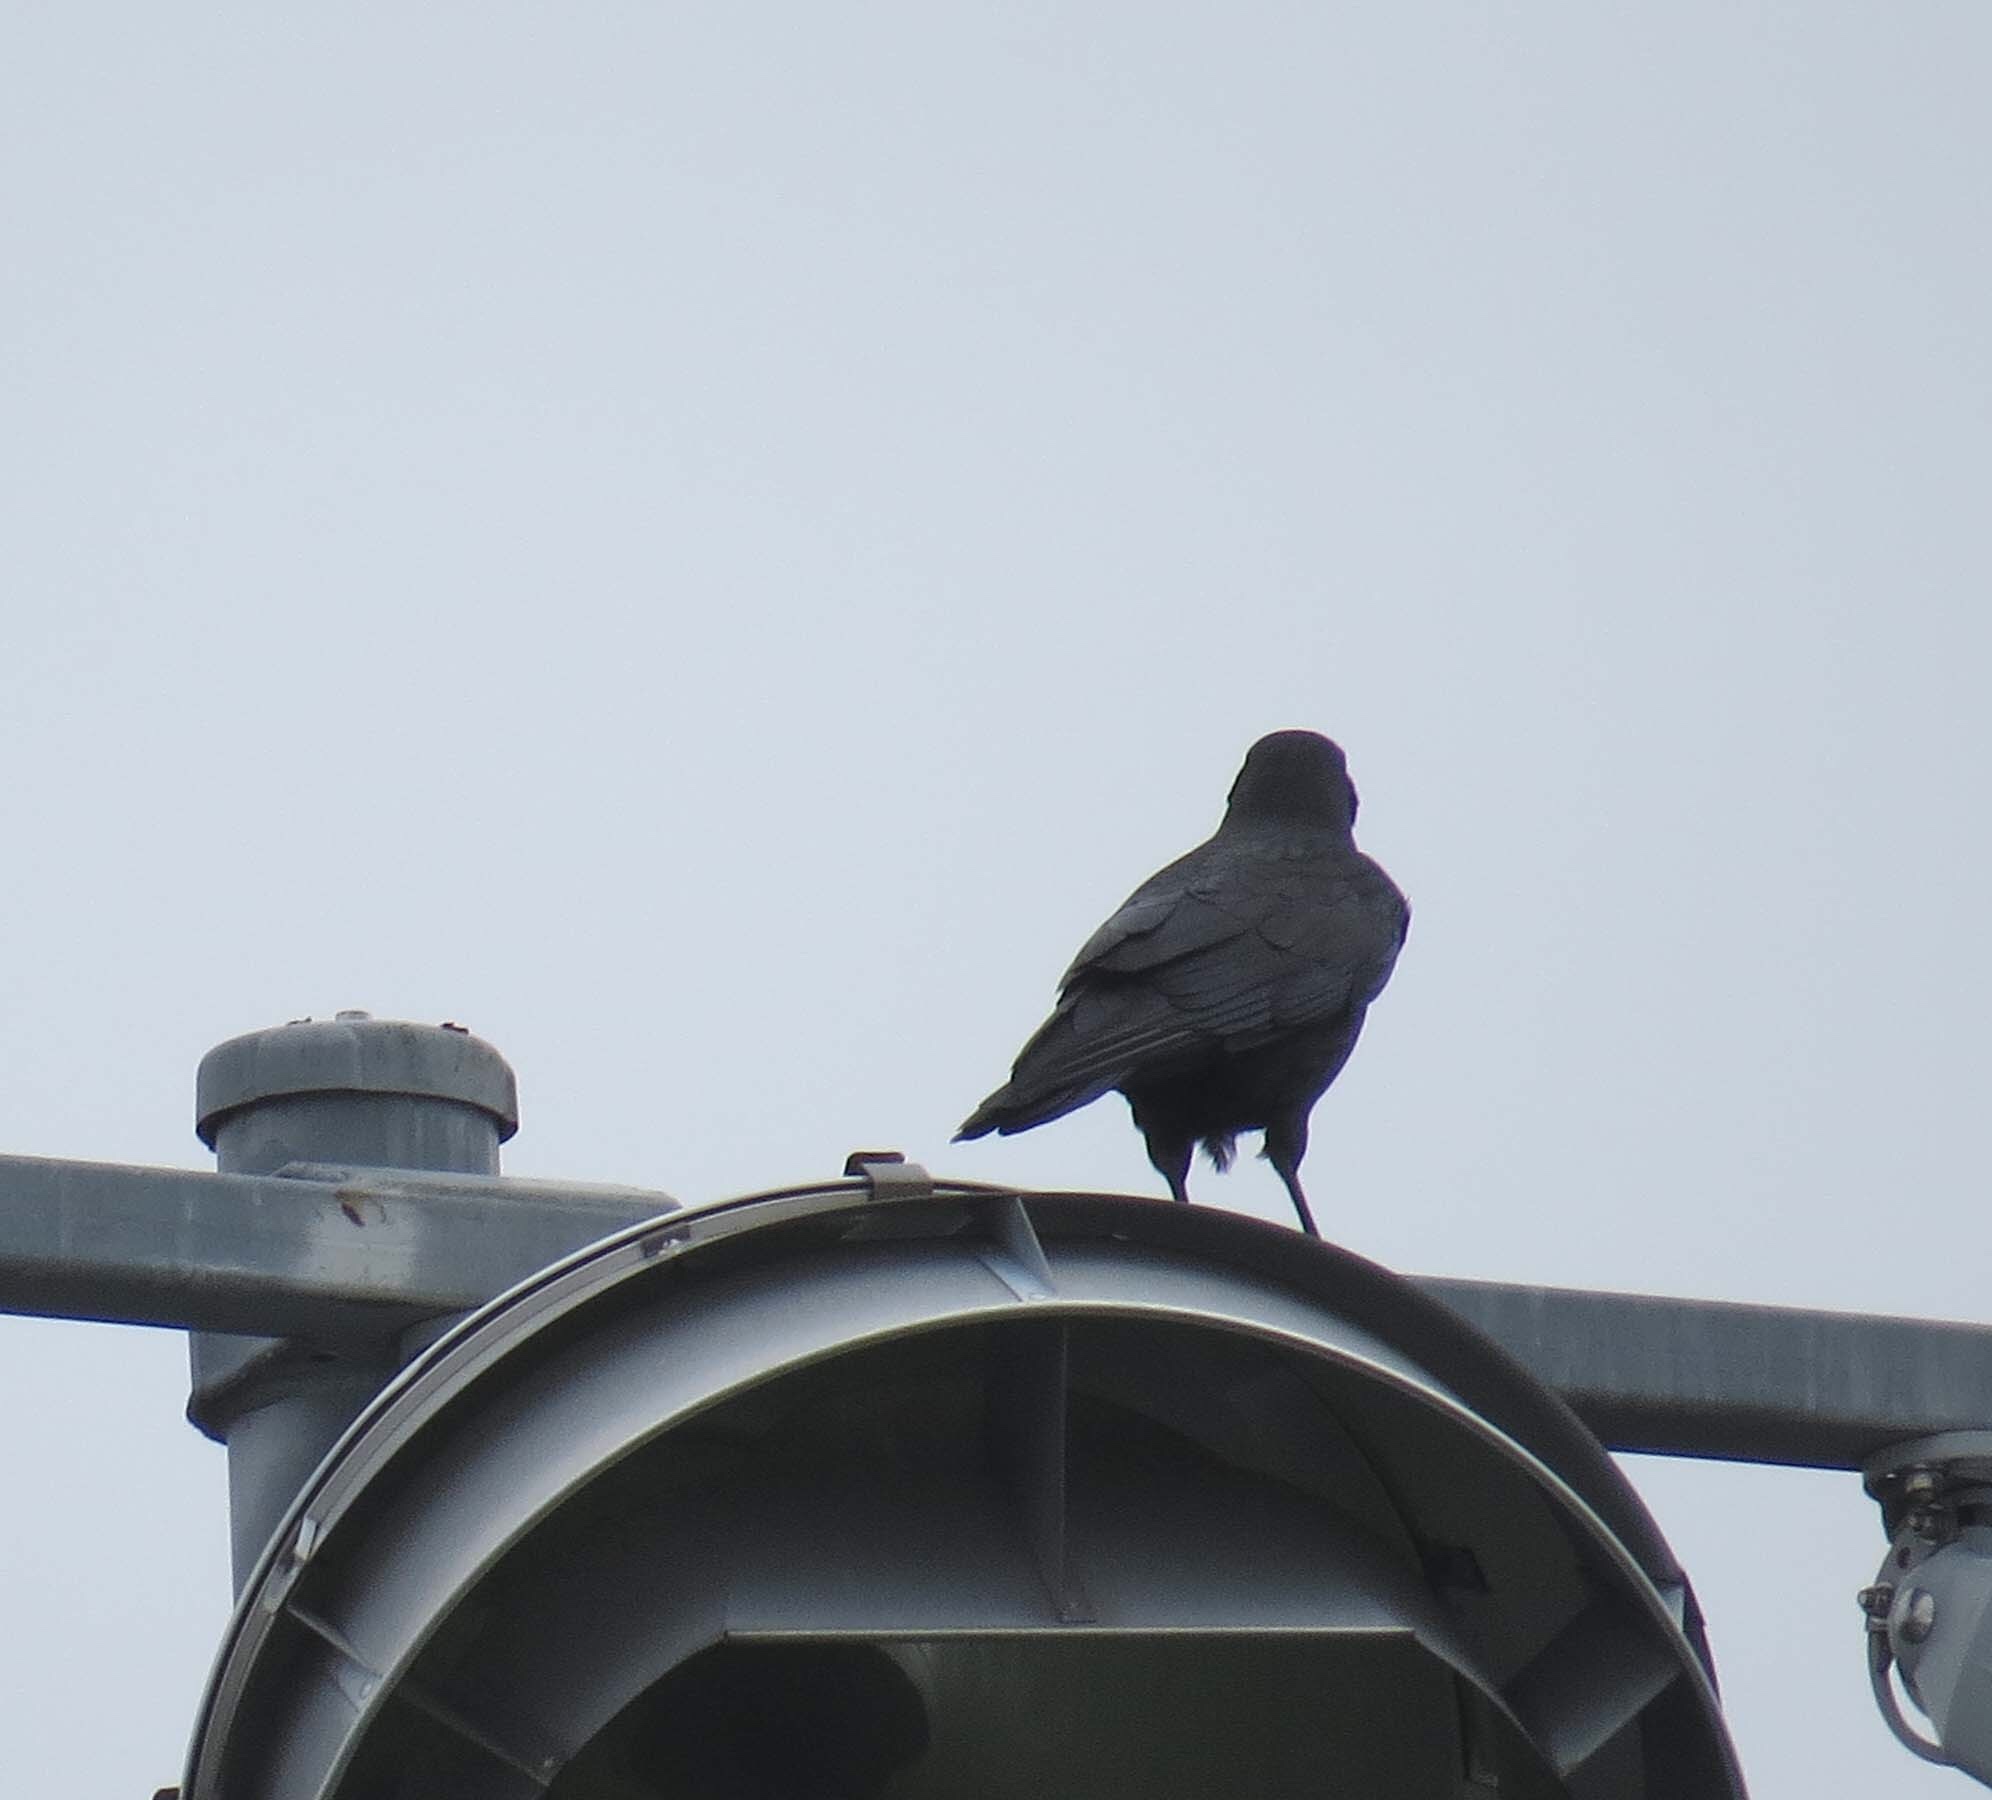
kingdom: Animalia
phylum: Chordata
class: Aves
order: Passeriformes
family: Corvidae
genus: Corvus
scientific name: Corvus brachyrhynchos
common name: American crow
